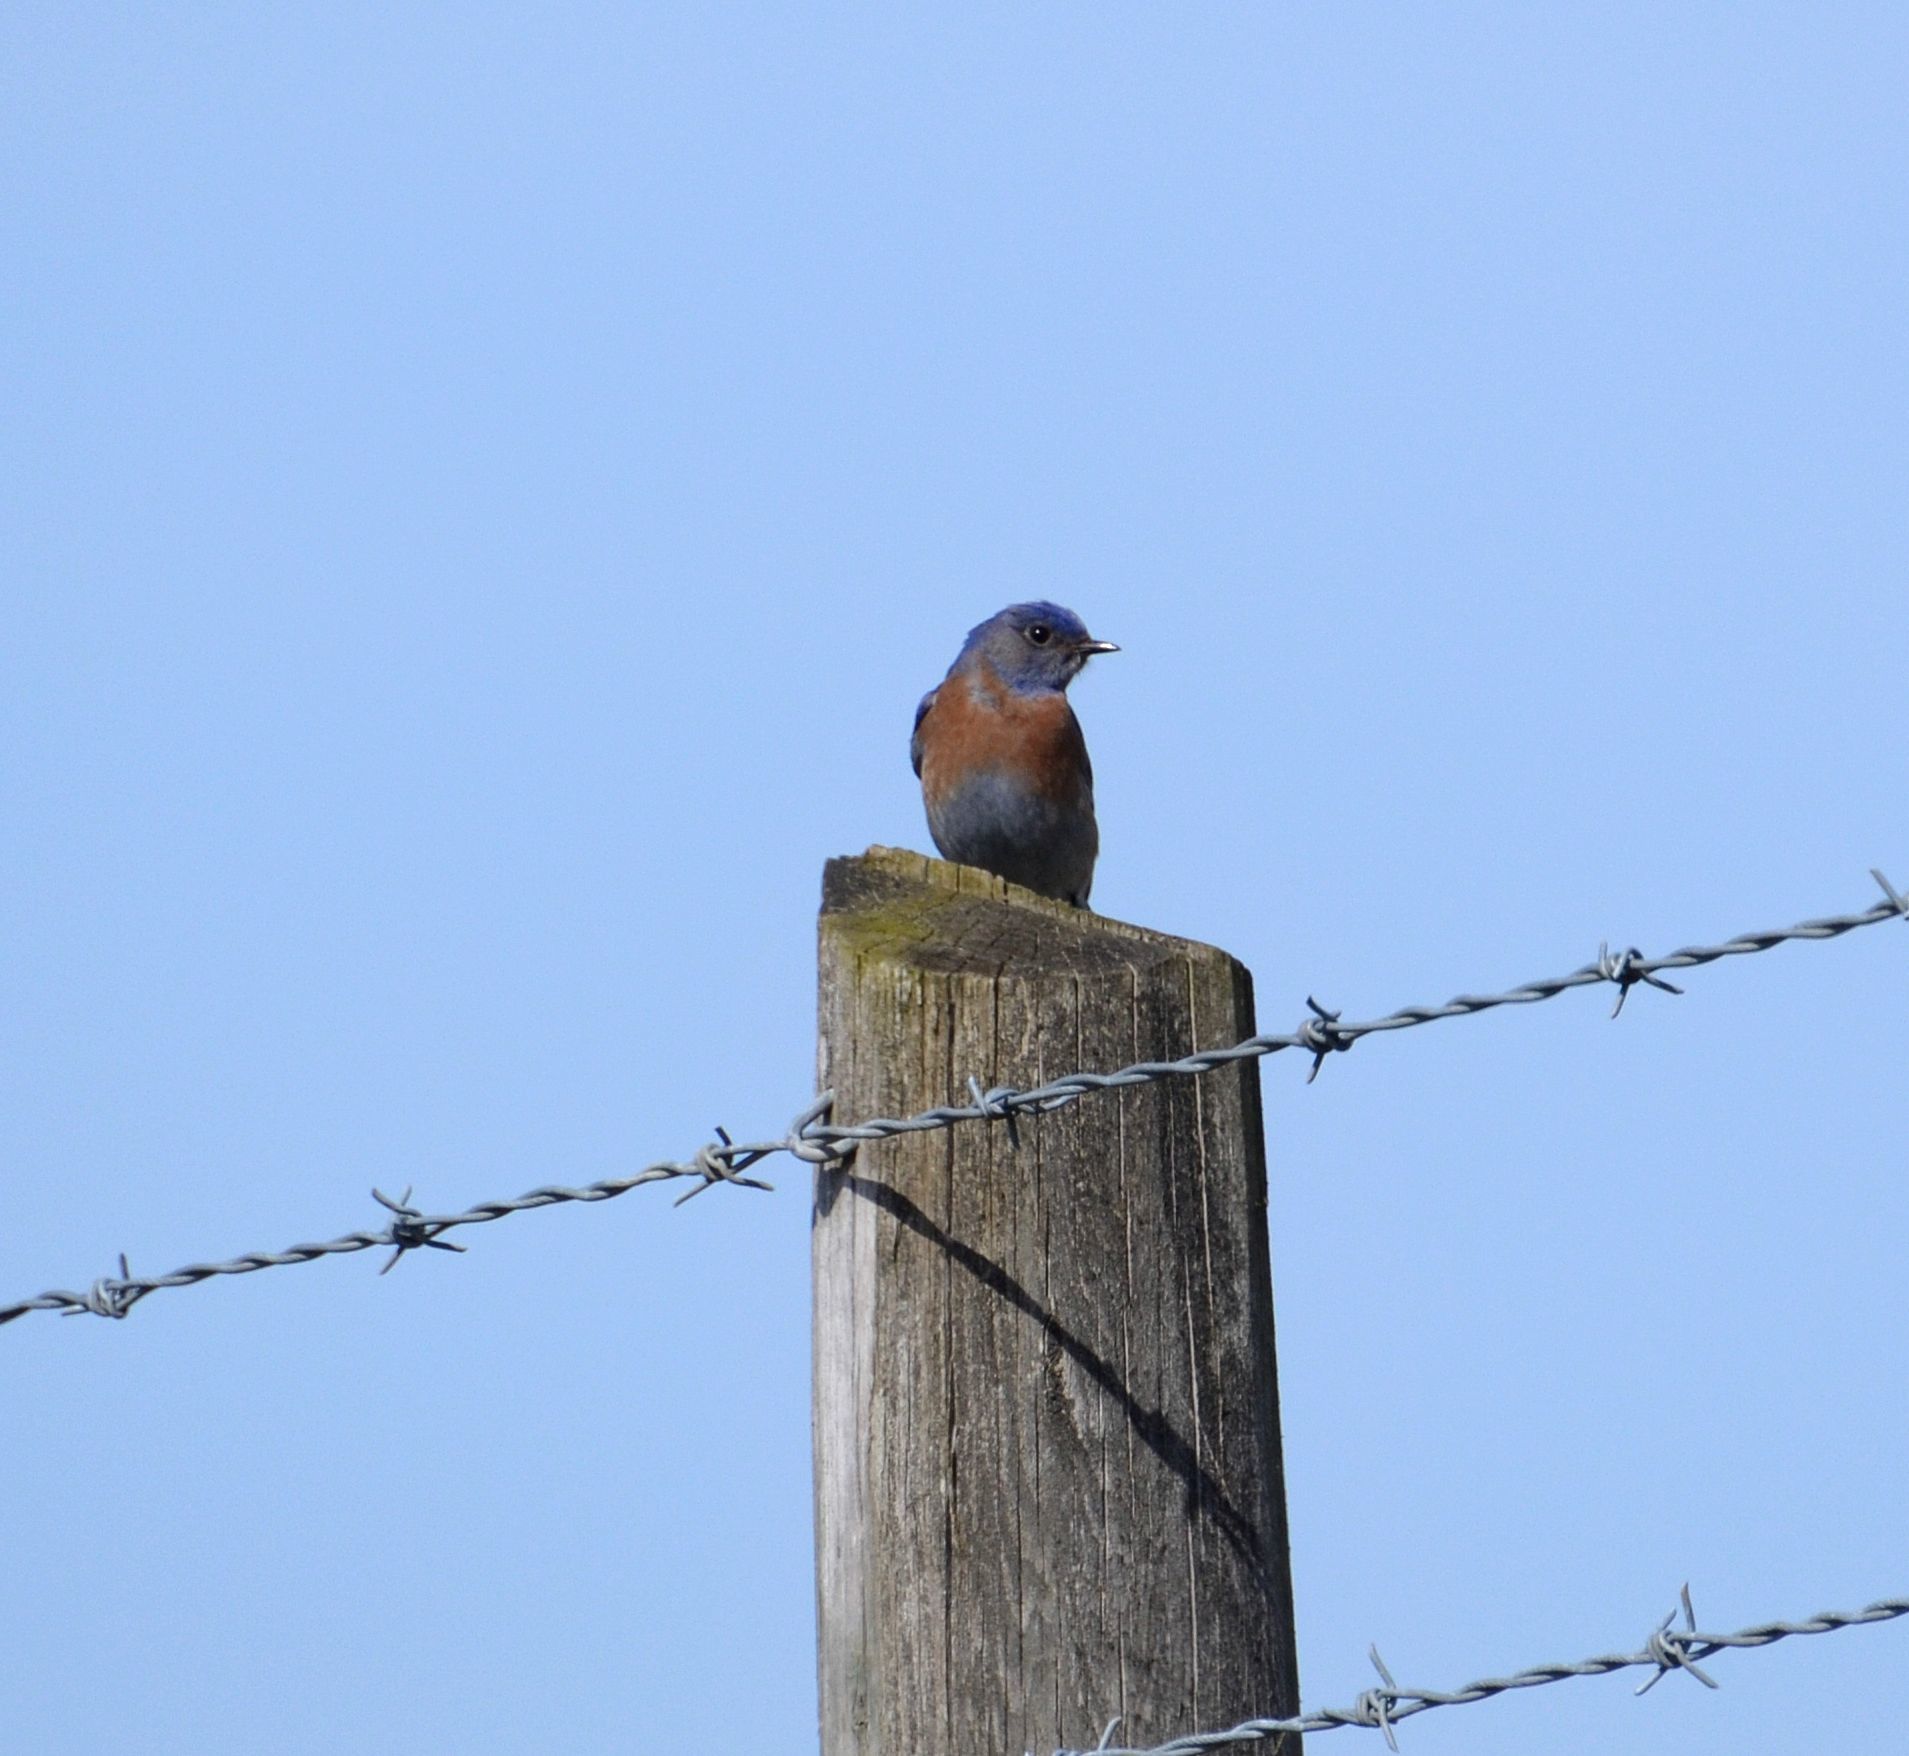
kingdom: Animalia
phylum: Chordata
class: Aves
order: Passeriformes
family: Turdidae
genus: Sialia
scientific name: Sialia mexicana
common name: Western bluebird
